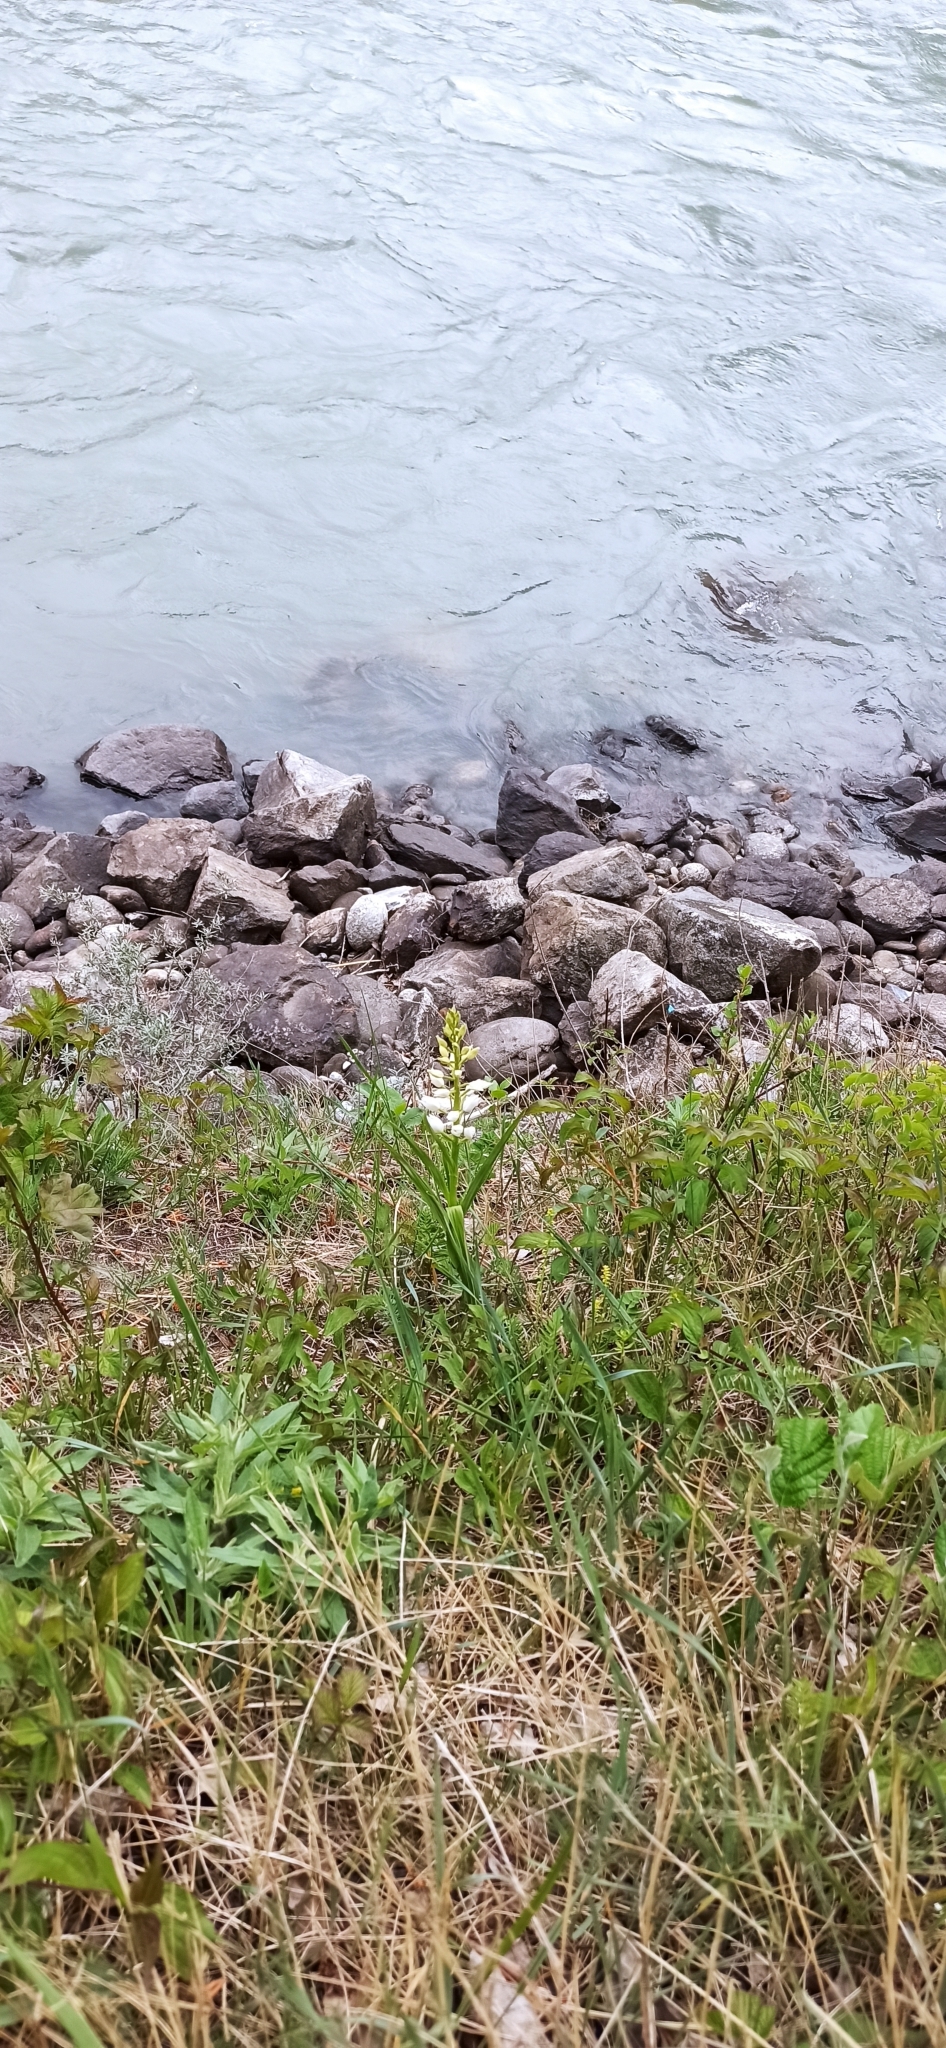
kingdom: Plantae
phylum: Tracheophyta
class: Liliopsida
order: Asparagales
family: Orchidaceae
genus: Cephalanthera
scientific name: Cephalanthera longifolia
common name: Narrow-leaved helleborine
